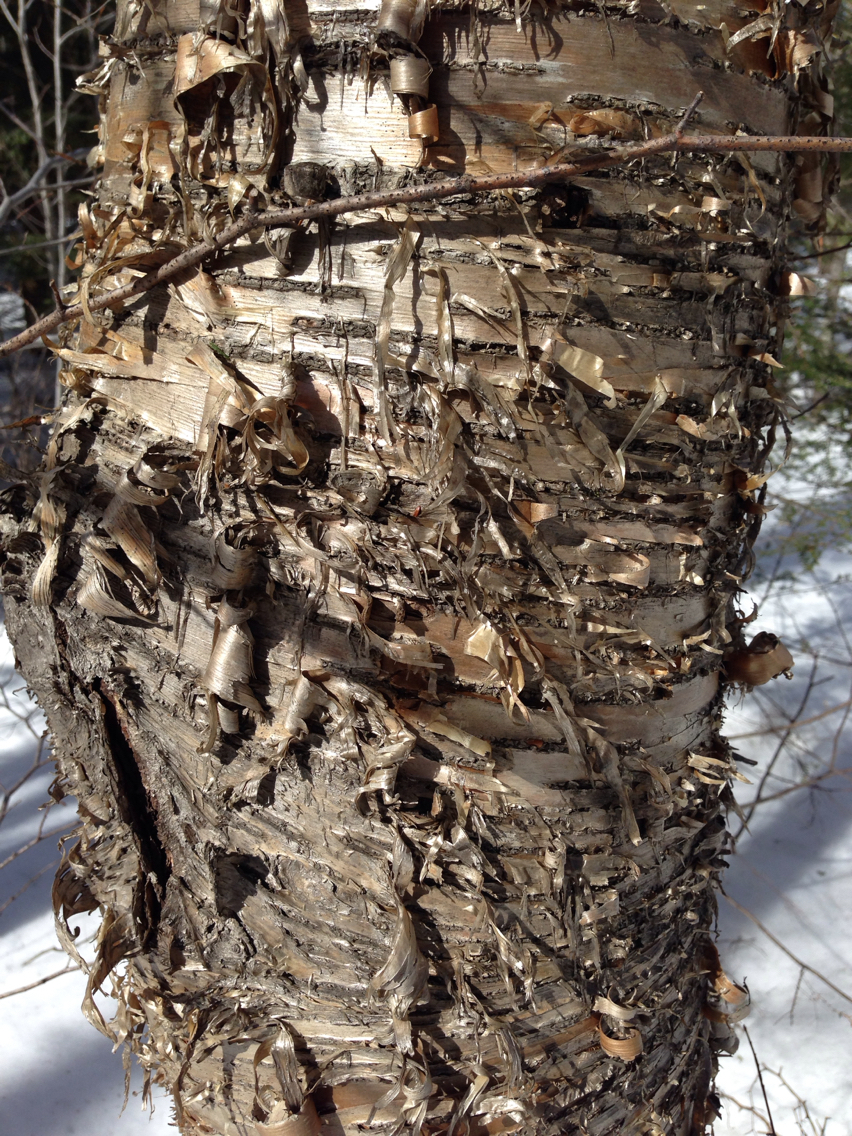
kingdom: Plantae
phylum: Tracheophyta
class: Magnoliopsida
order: Fagales
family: Betulaceae
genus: Betula
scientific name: Betula alleghaniensis
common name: Yellow birch
